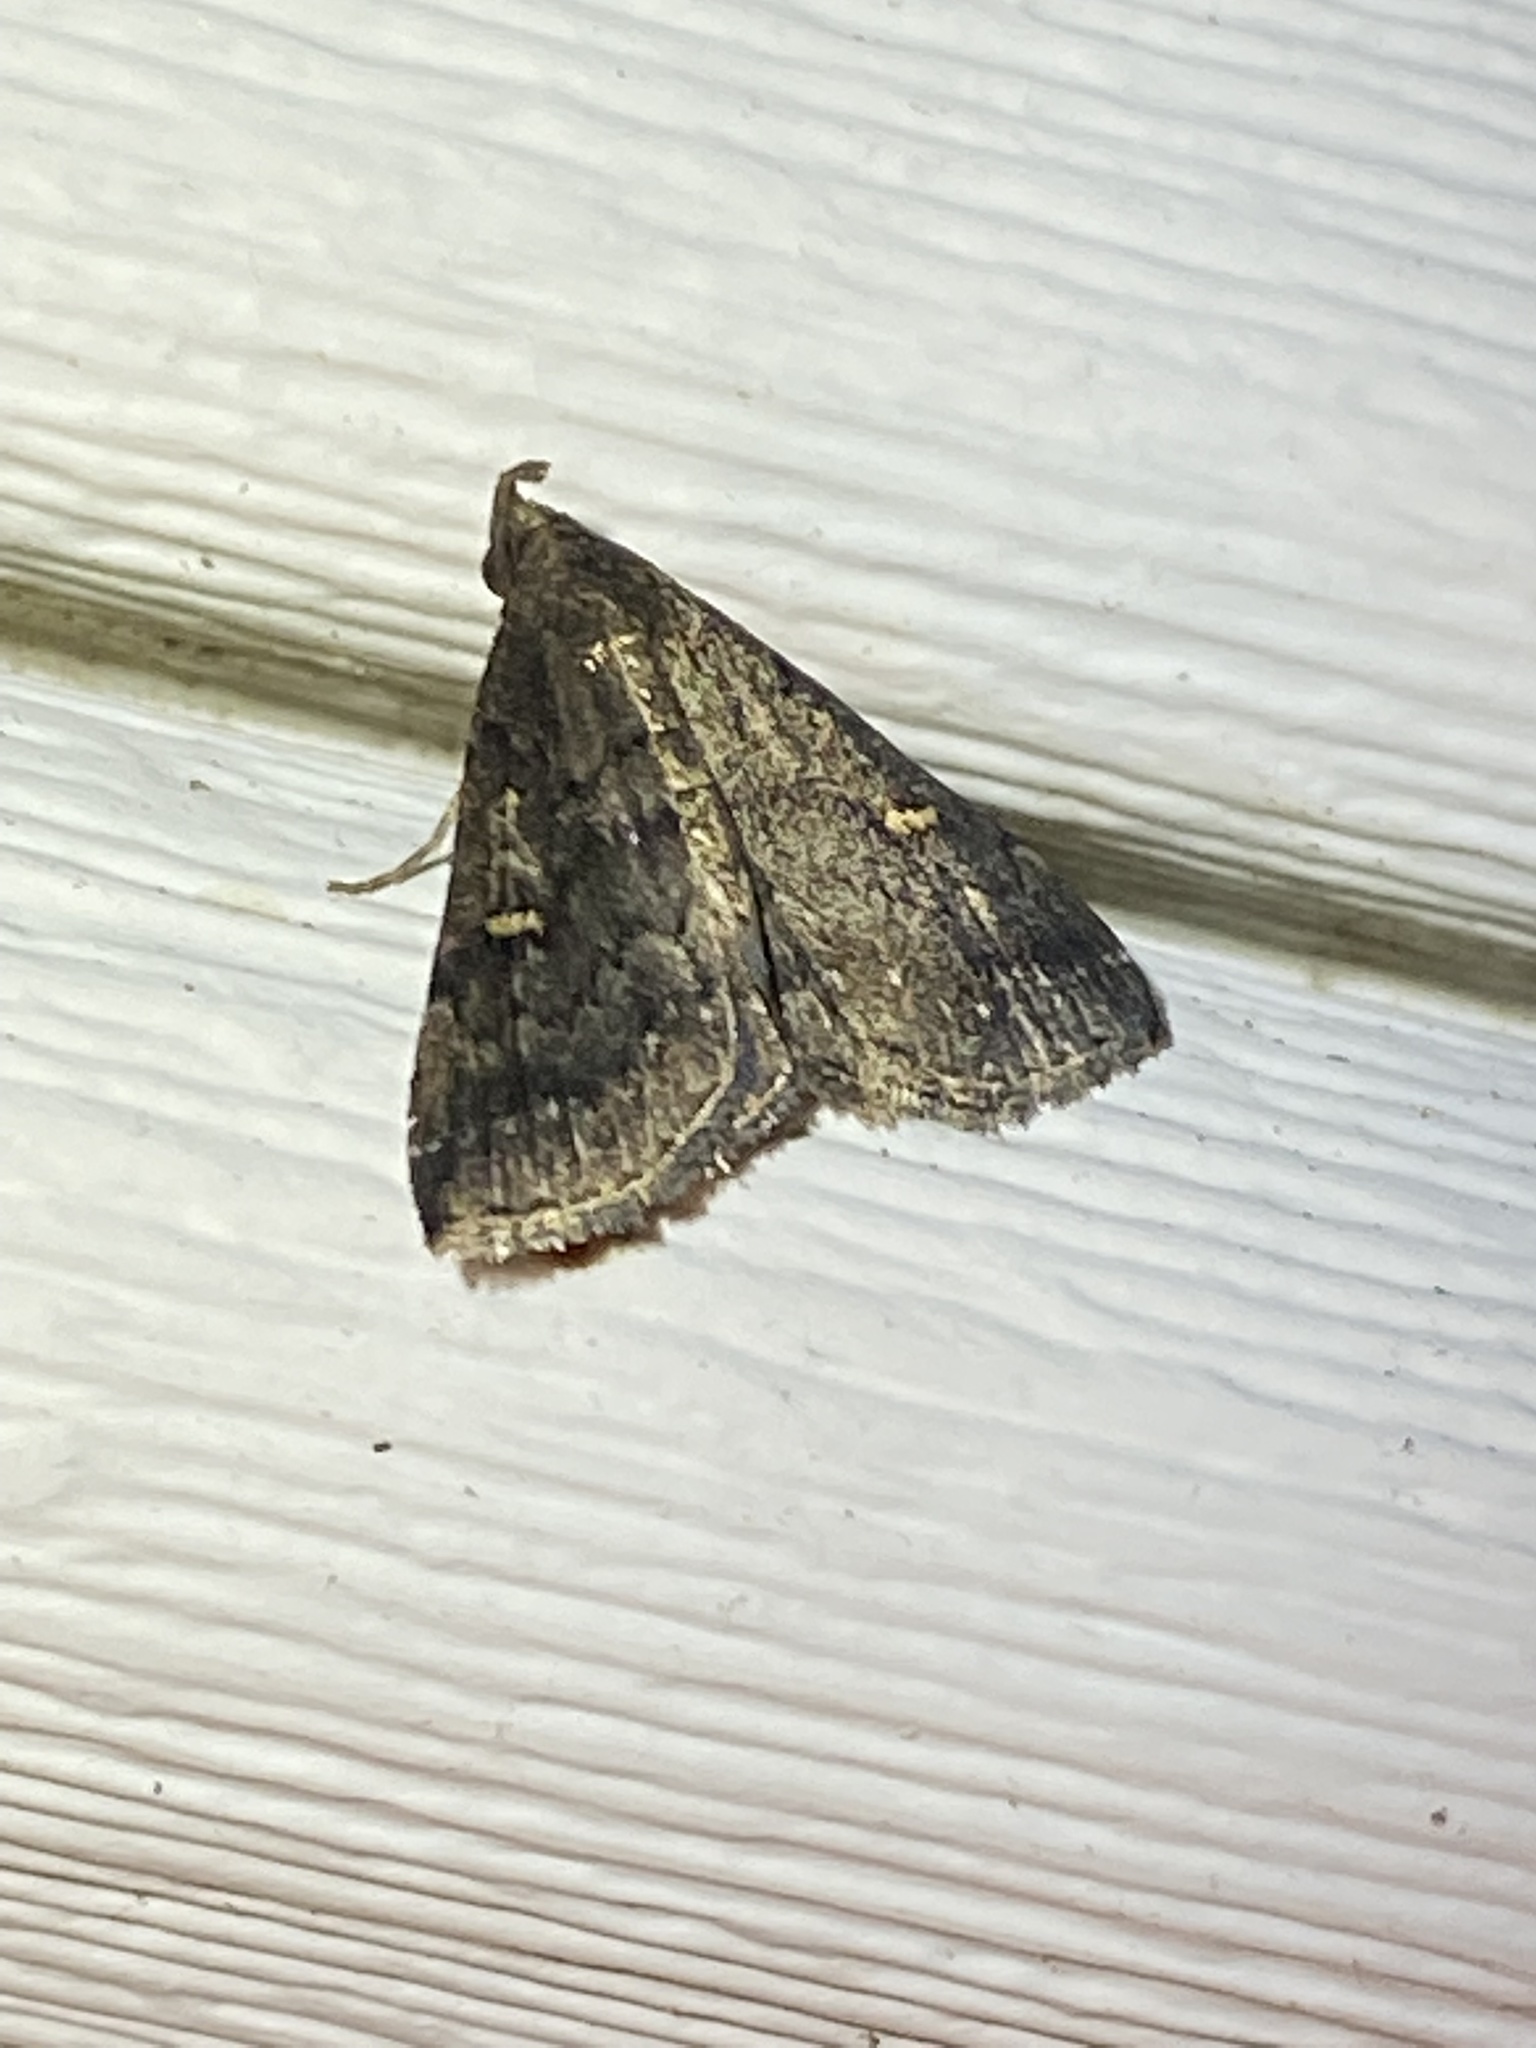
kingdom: Animalia
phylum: Arthropoda
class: Insecta
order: Lepidoptera
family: Erebidae
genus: Tetanolita
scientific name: Tetanolita mynesalis
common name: Smoky tetanolita moth
